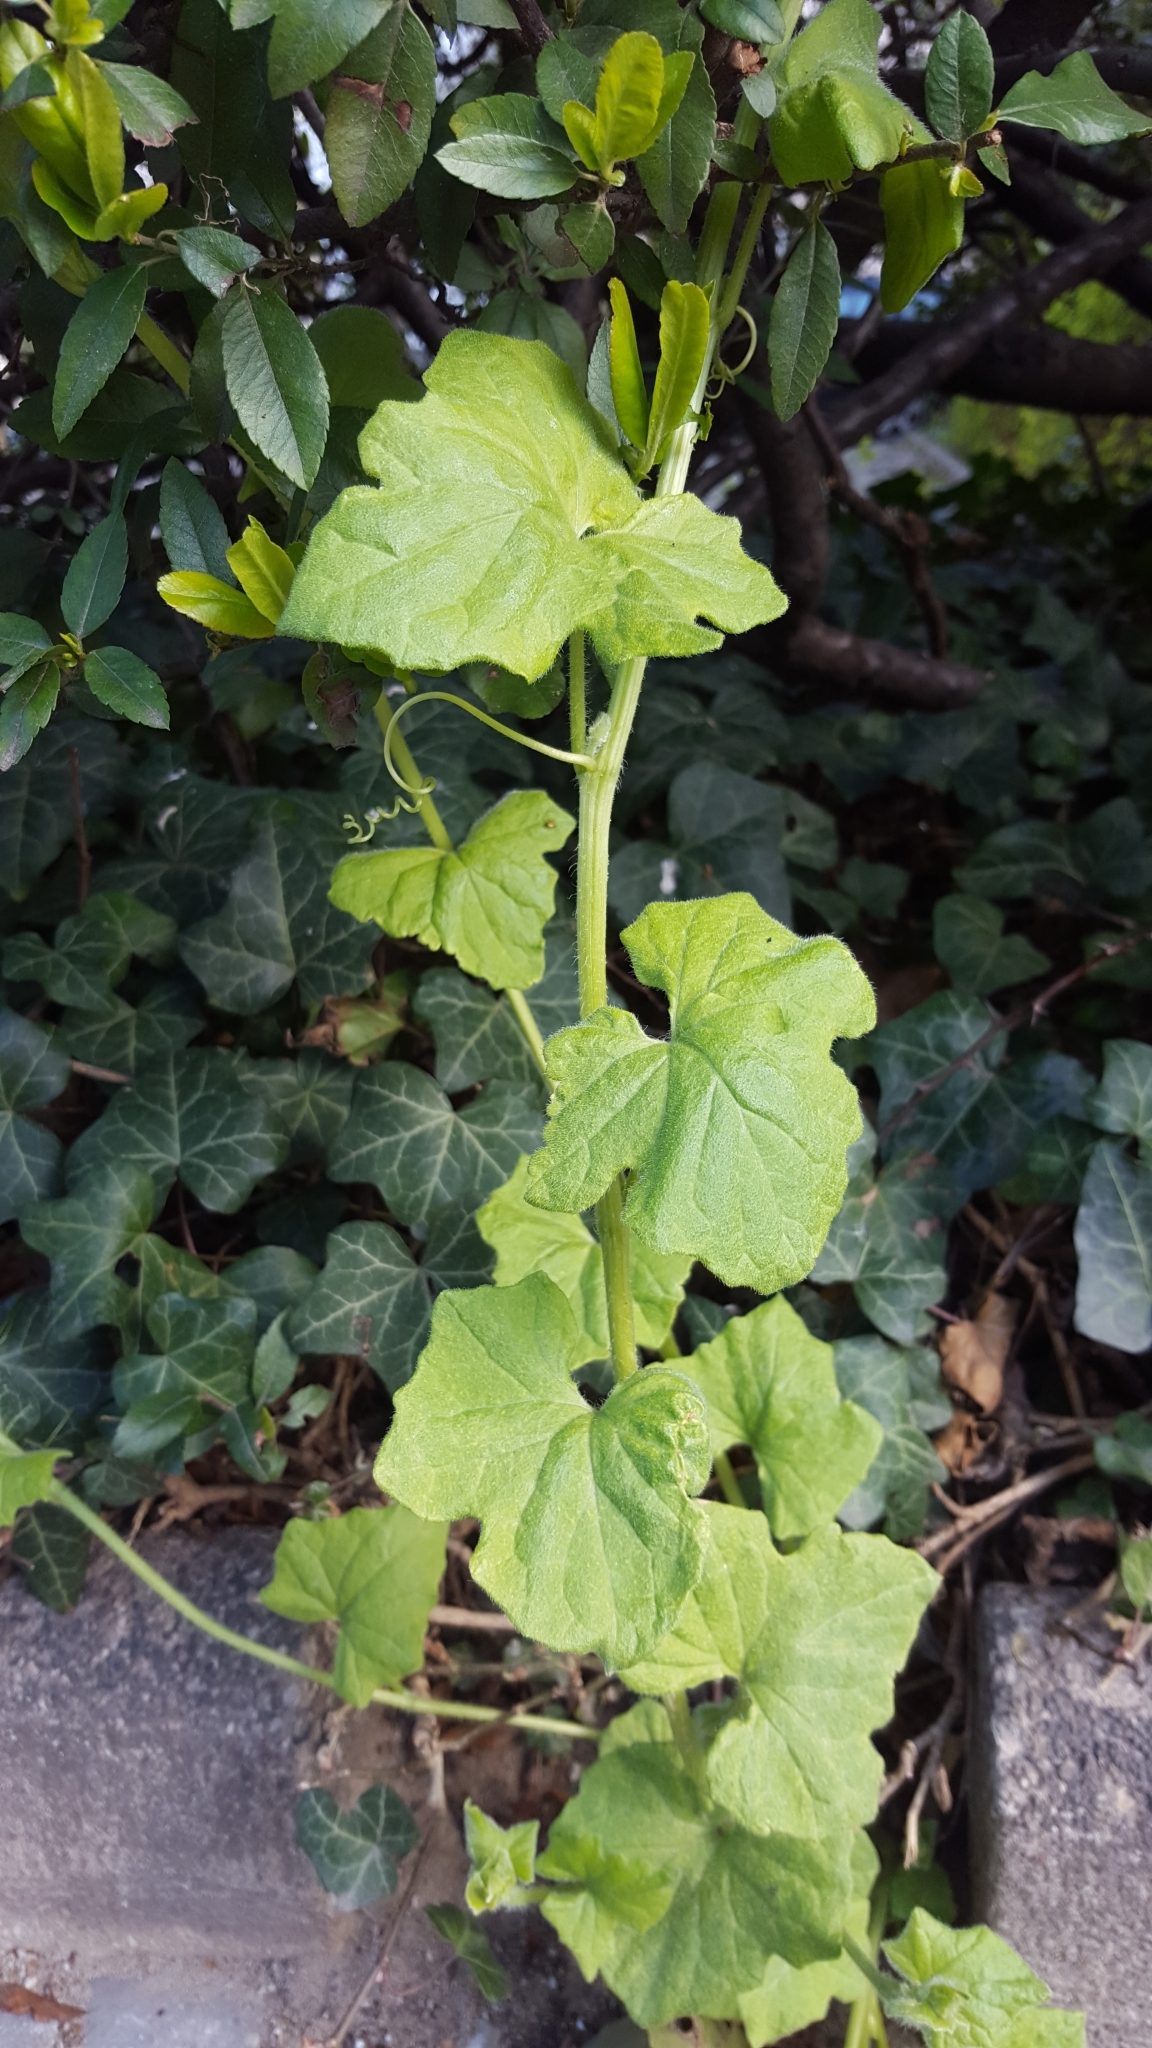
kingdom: Plantae
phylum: Tracheophyta
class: Magnoliopsida
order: Cucurbitales
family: Cucurbitaceae
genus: Bryonia
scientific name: Bryonia cretica
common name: Cretan bryony
